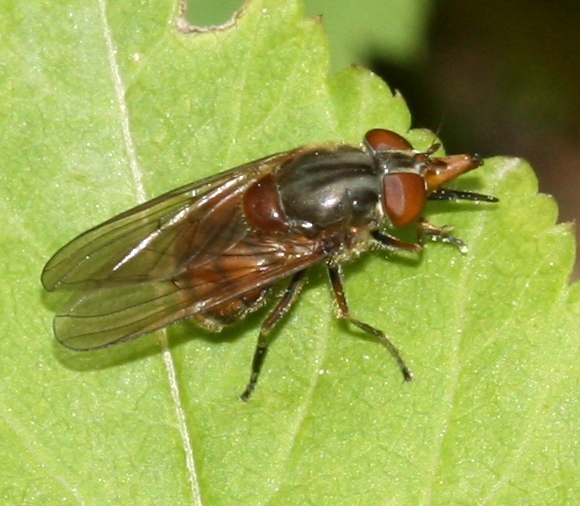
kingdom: Animalia
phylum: Arthropoda
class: Insecta
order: Diptera
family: Syrphidae
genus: Rhingia
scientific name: Rhingia campestris
